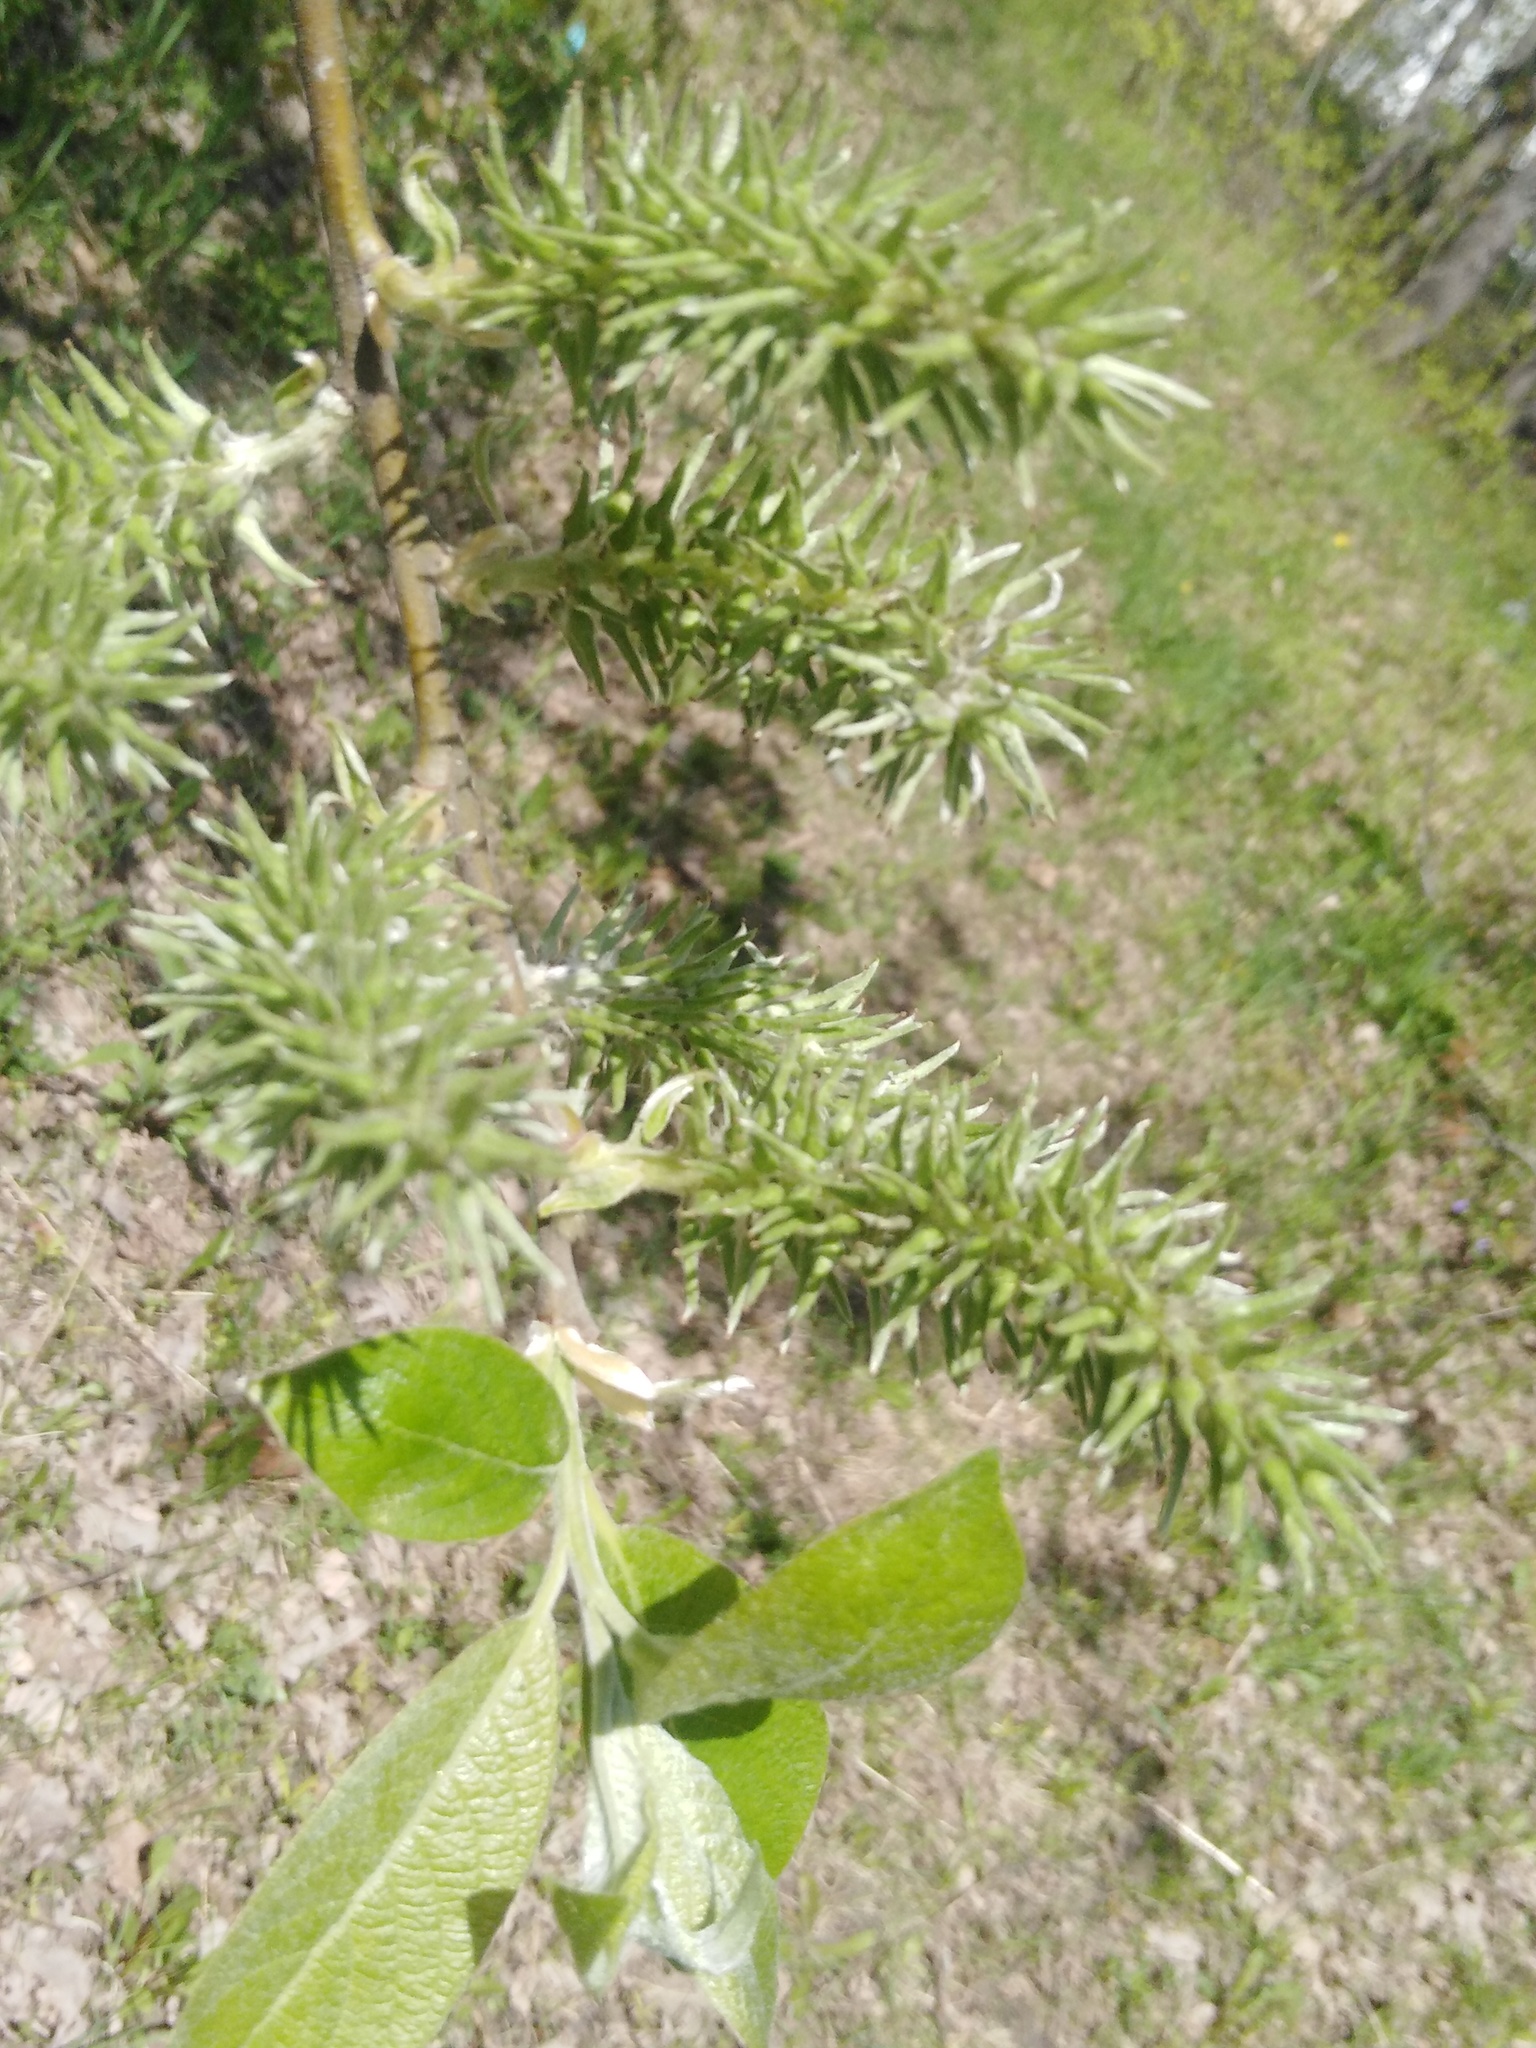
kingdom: Plantae
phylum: Tracheophyta
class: Magnoliopsida
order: Malpighiales
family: Salicaceae
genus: Salix
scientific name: Salix caprea
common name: Goat willow
